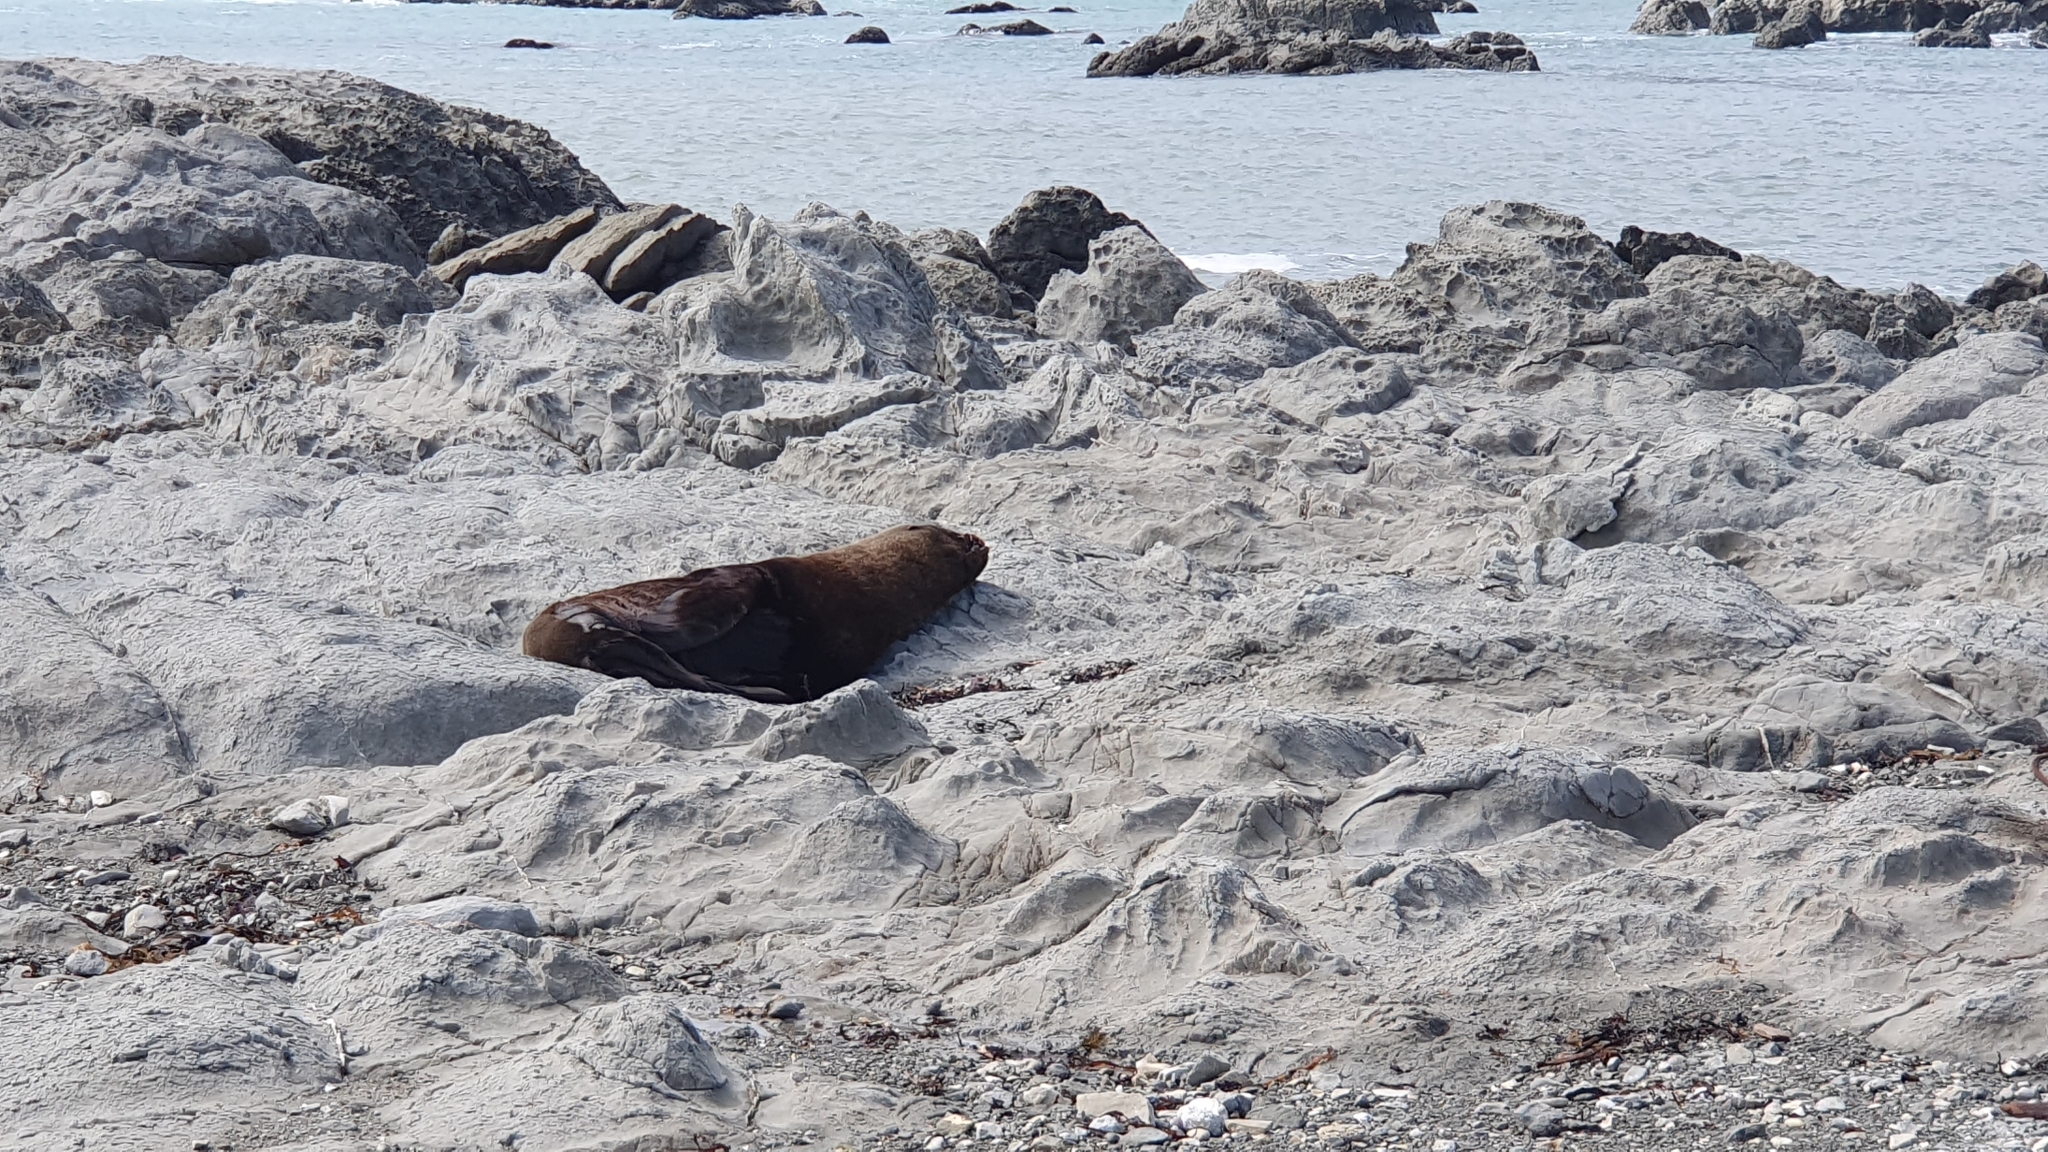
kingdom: Animalia
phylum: Chordata
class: Mammalia
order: Carnivora
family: Otariidae
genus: Arctocephalus
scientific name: Arctocephalus forsteri
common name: New zealand fur seal
